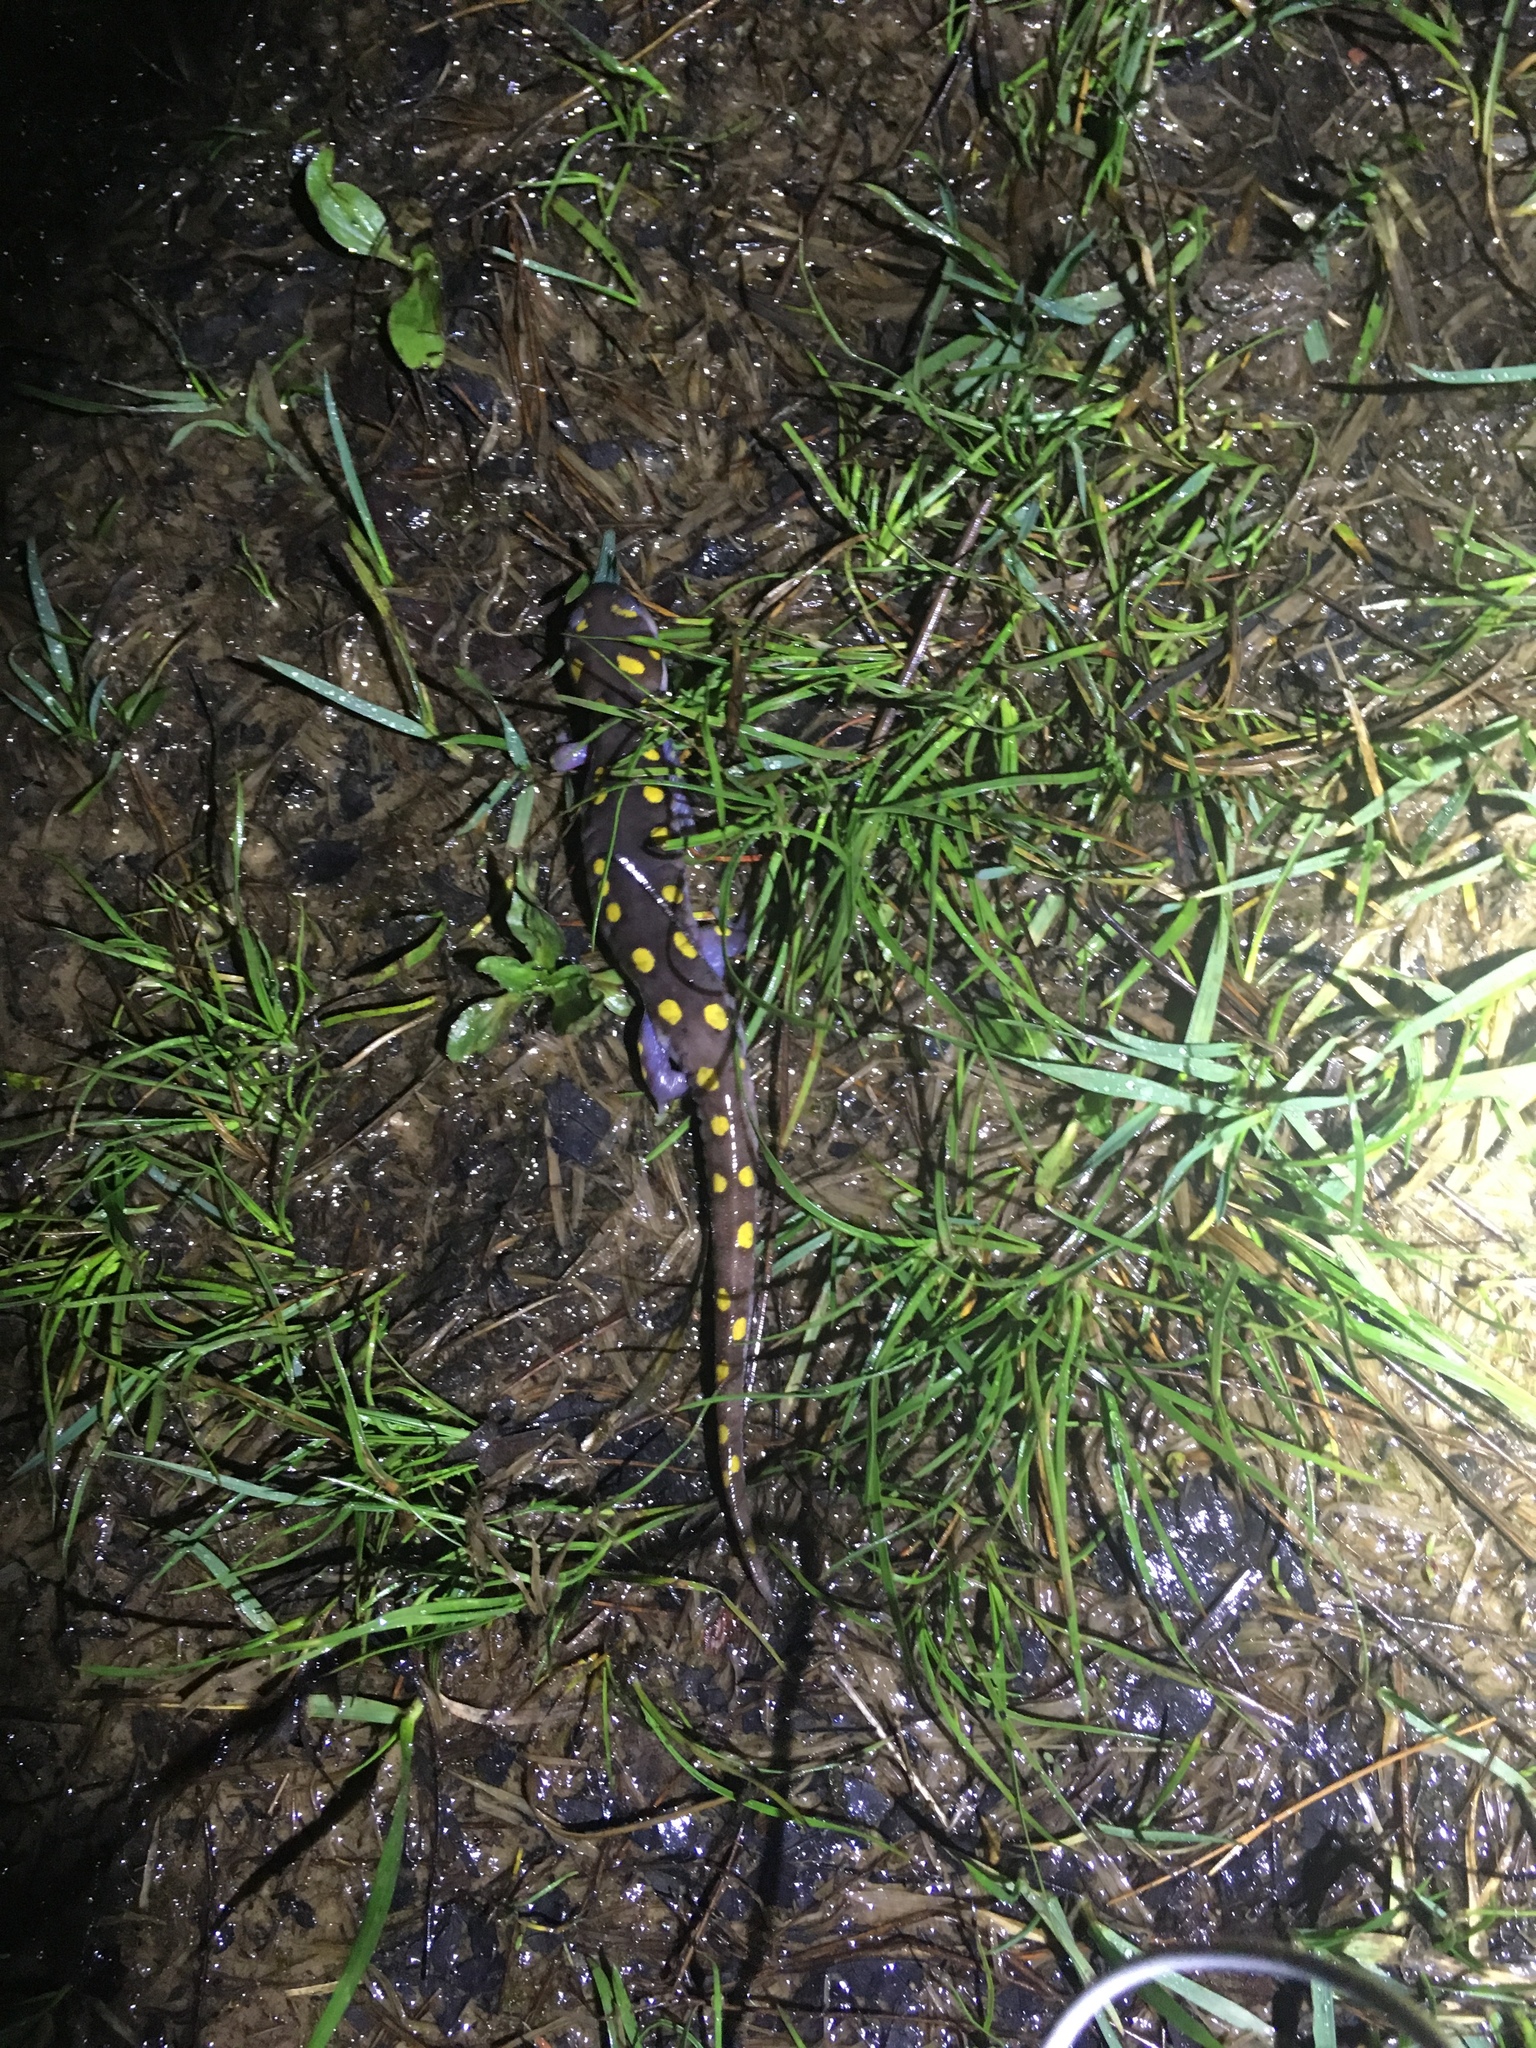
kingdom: Animalia
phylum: Chordata
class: Amphibia
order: Caudata
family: Ambystomatidae
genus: Ambystoma
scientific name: Ambystoma maculatum
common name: Spotted salamander
